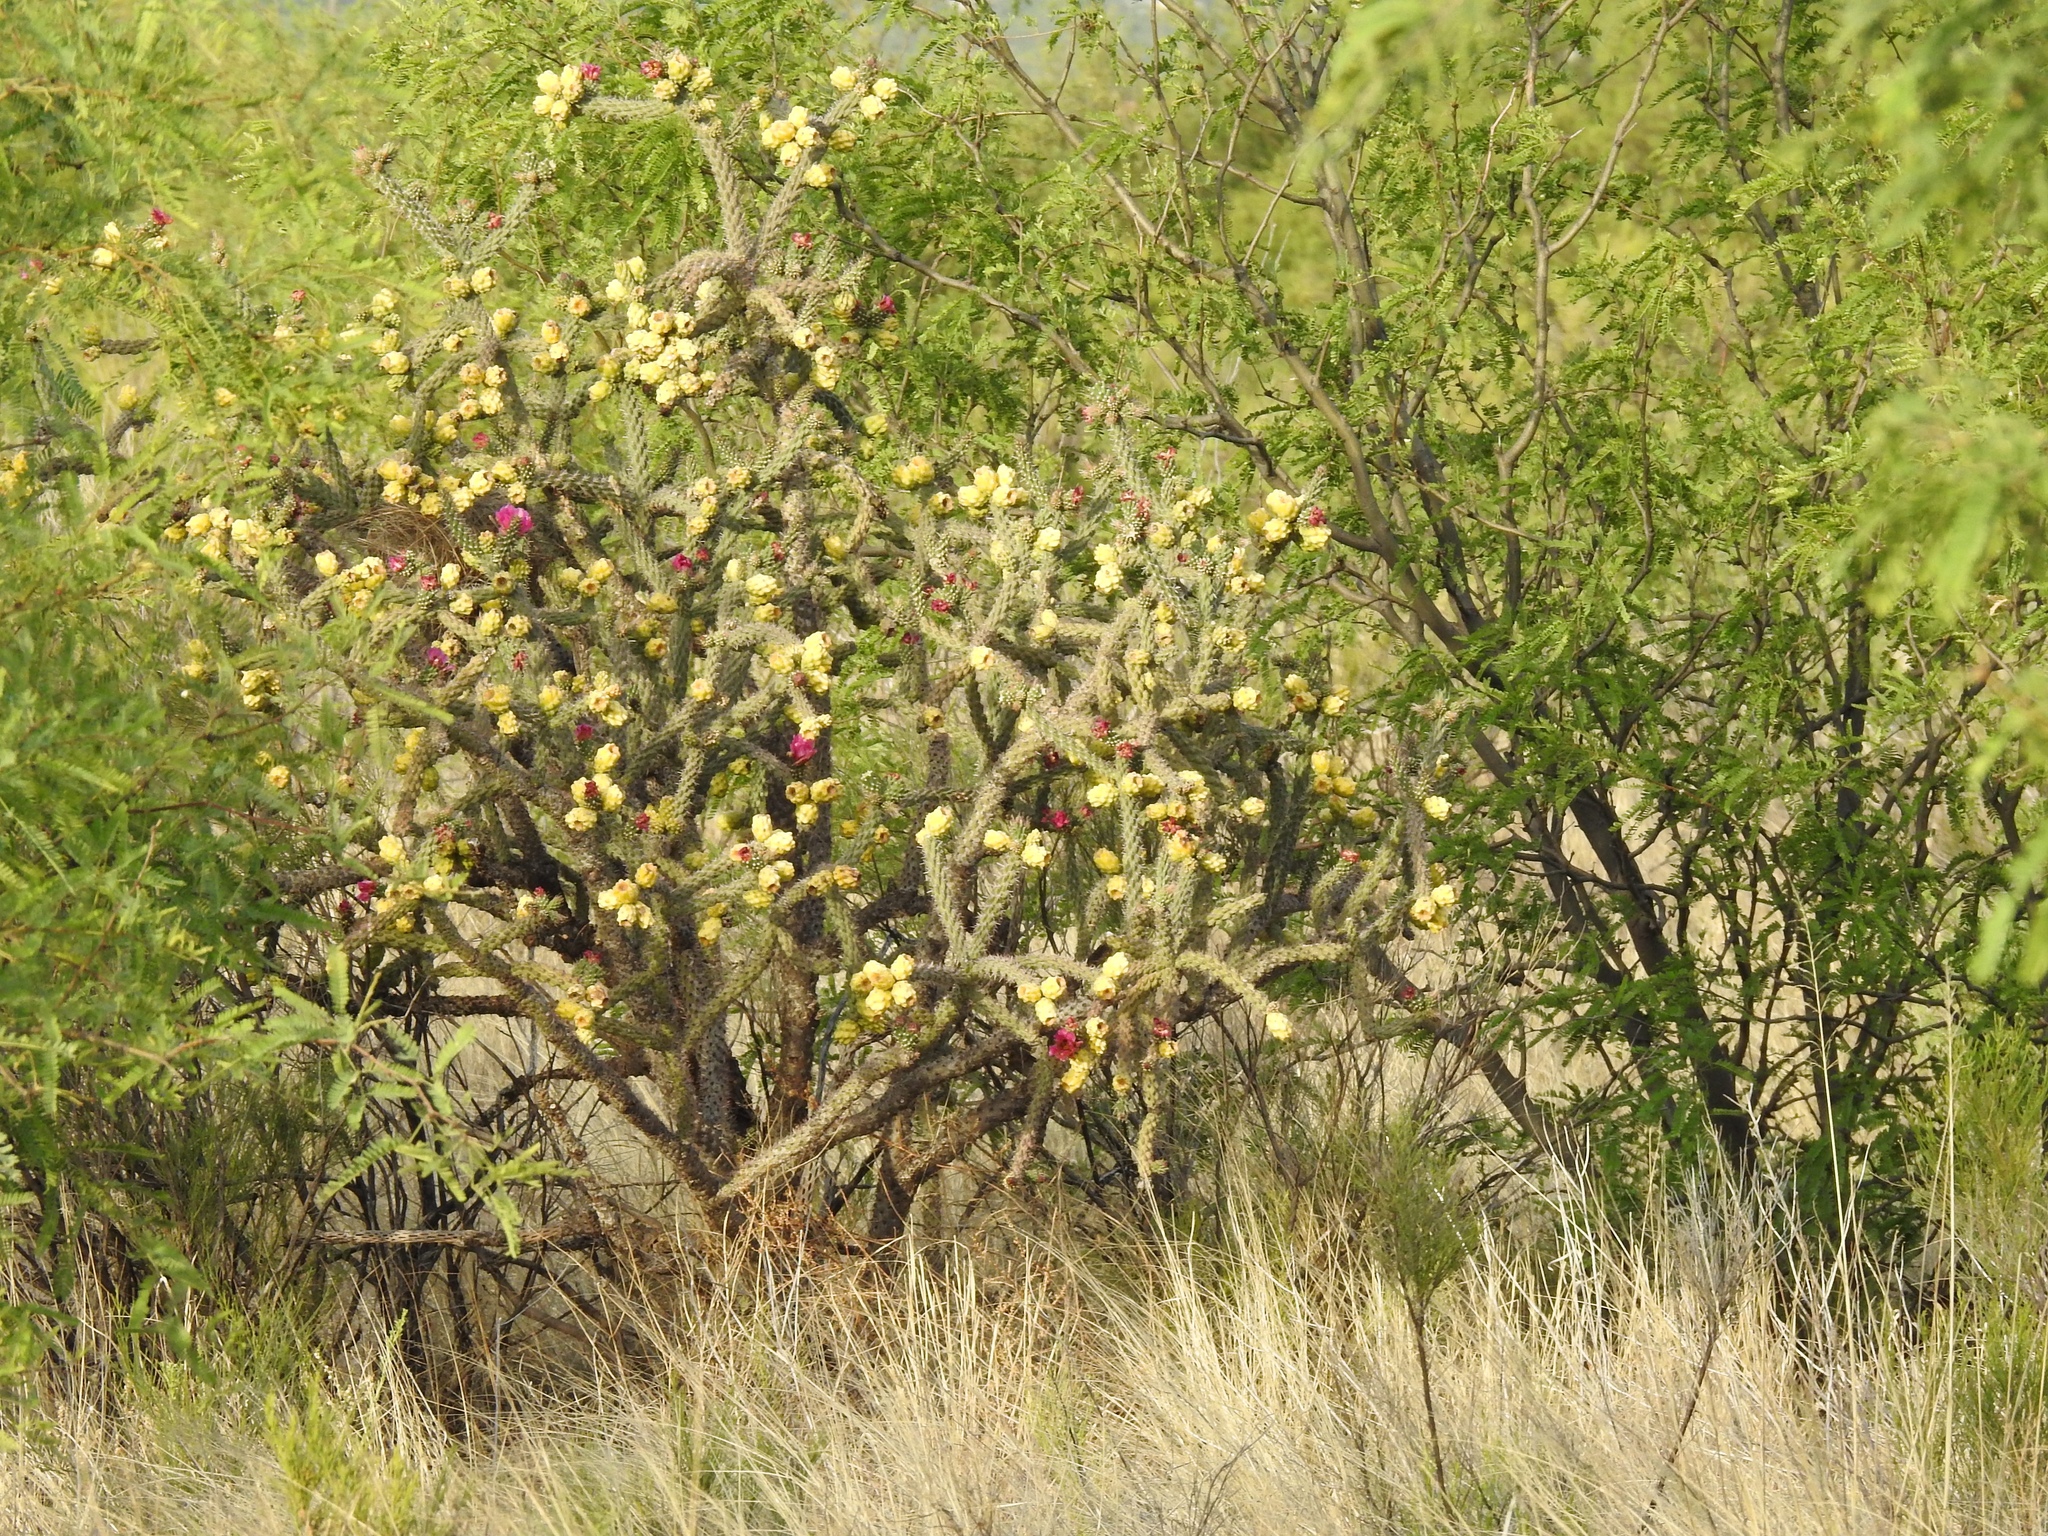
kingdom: Plantae
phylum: Tracheophyta
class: Magnoliopsida
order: Caryophyllales
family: Cactaceae
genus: Cylindropuntia
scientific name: Cylindropuntia imbricata
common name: Candelabrum cactus
